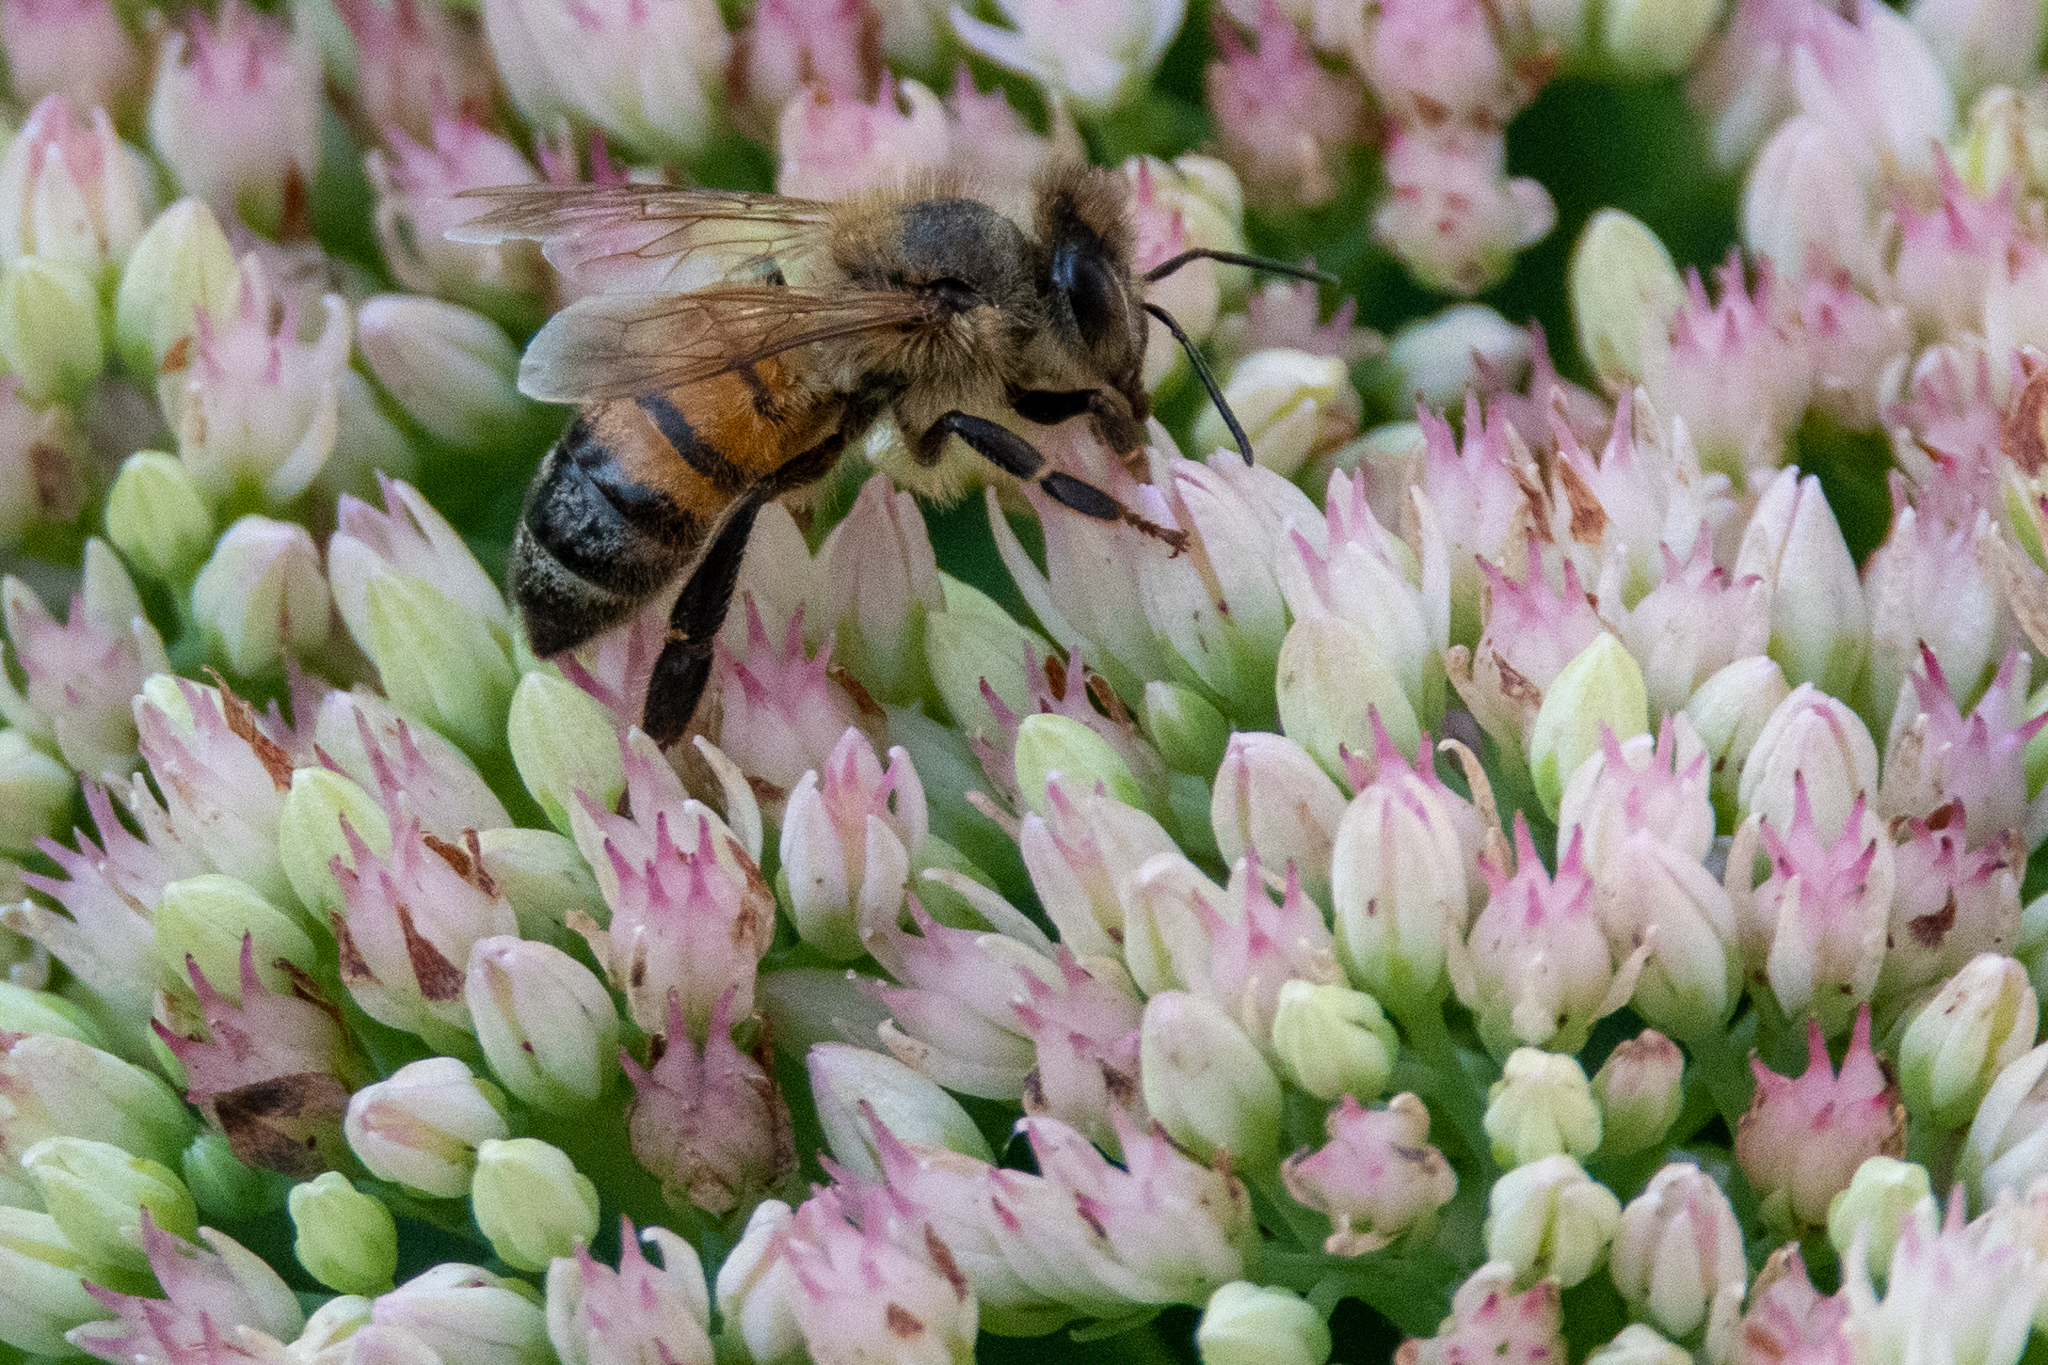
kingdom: Animalia
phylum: Arthropoda
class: Insecta
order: Hymenoptera
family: Apidae
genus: Apis
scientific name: Apis mellifera
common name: Honey bee
